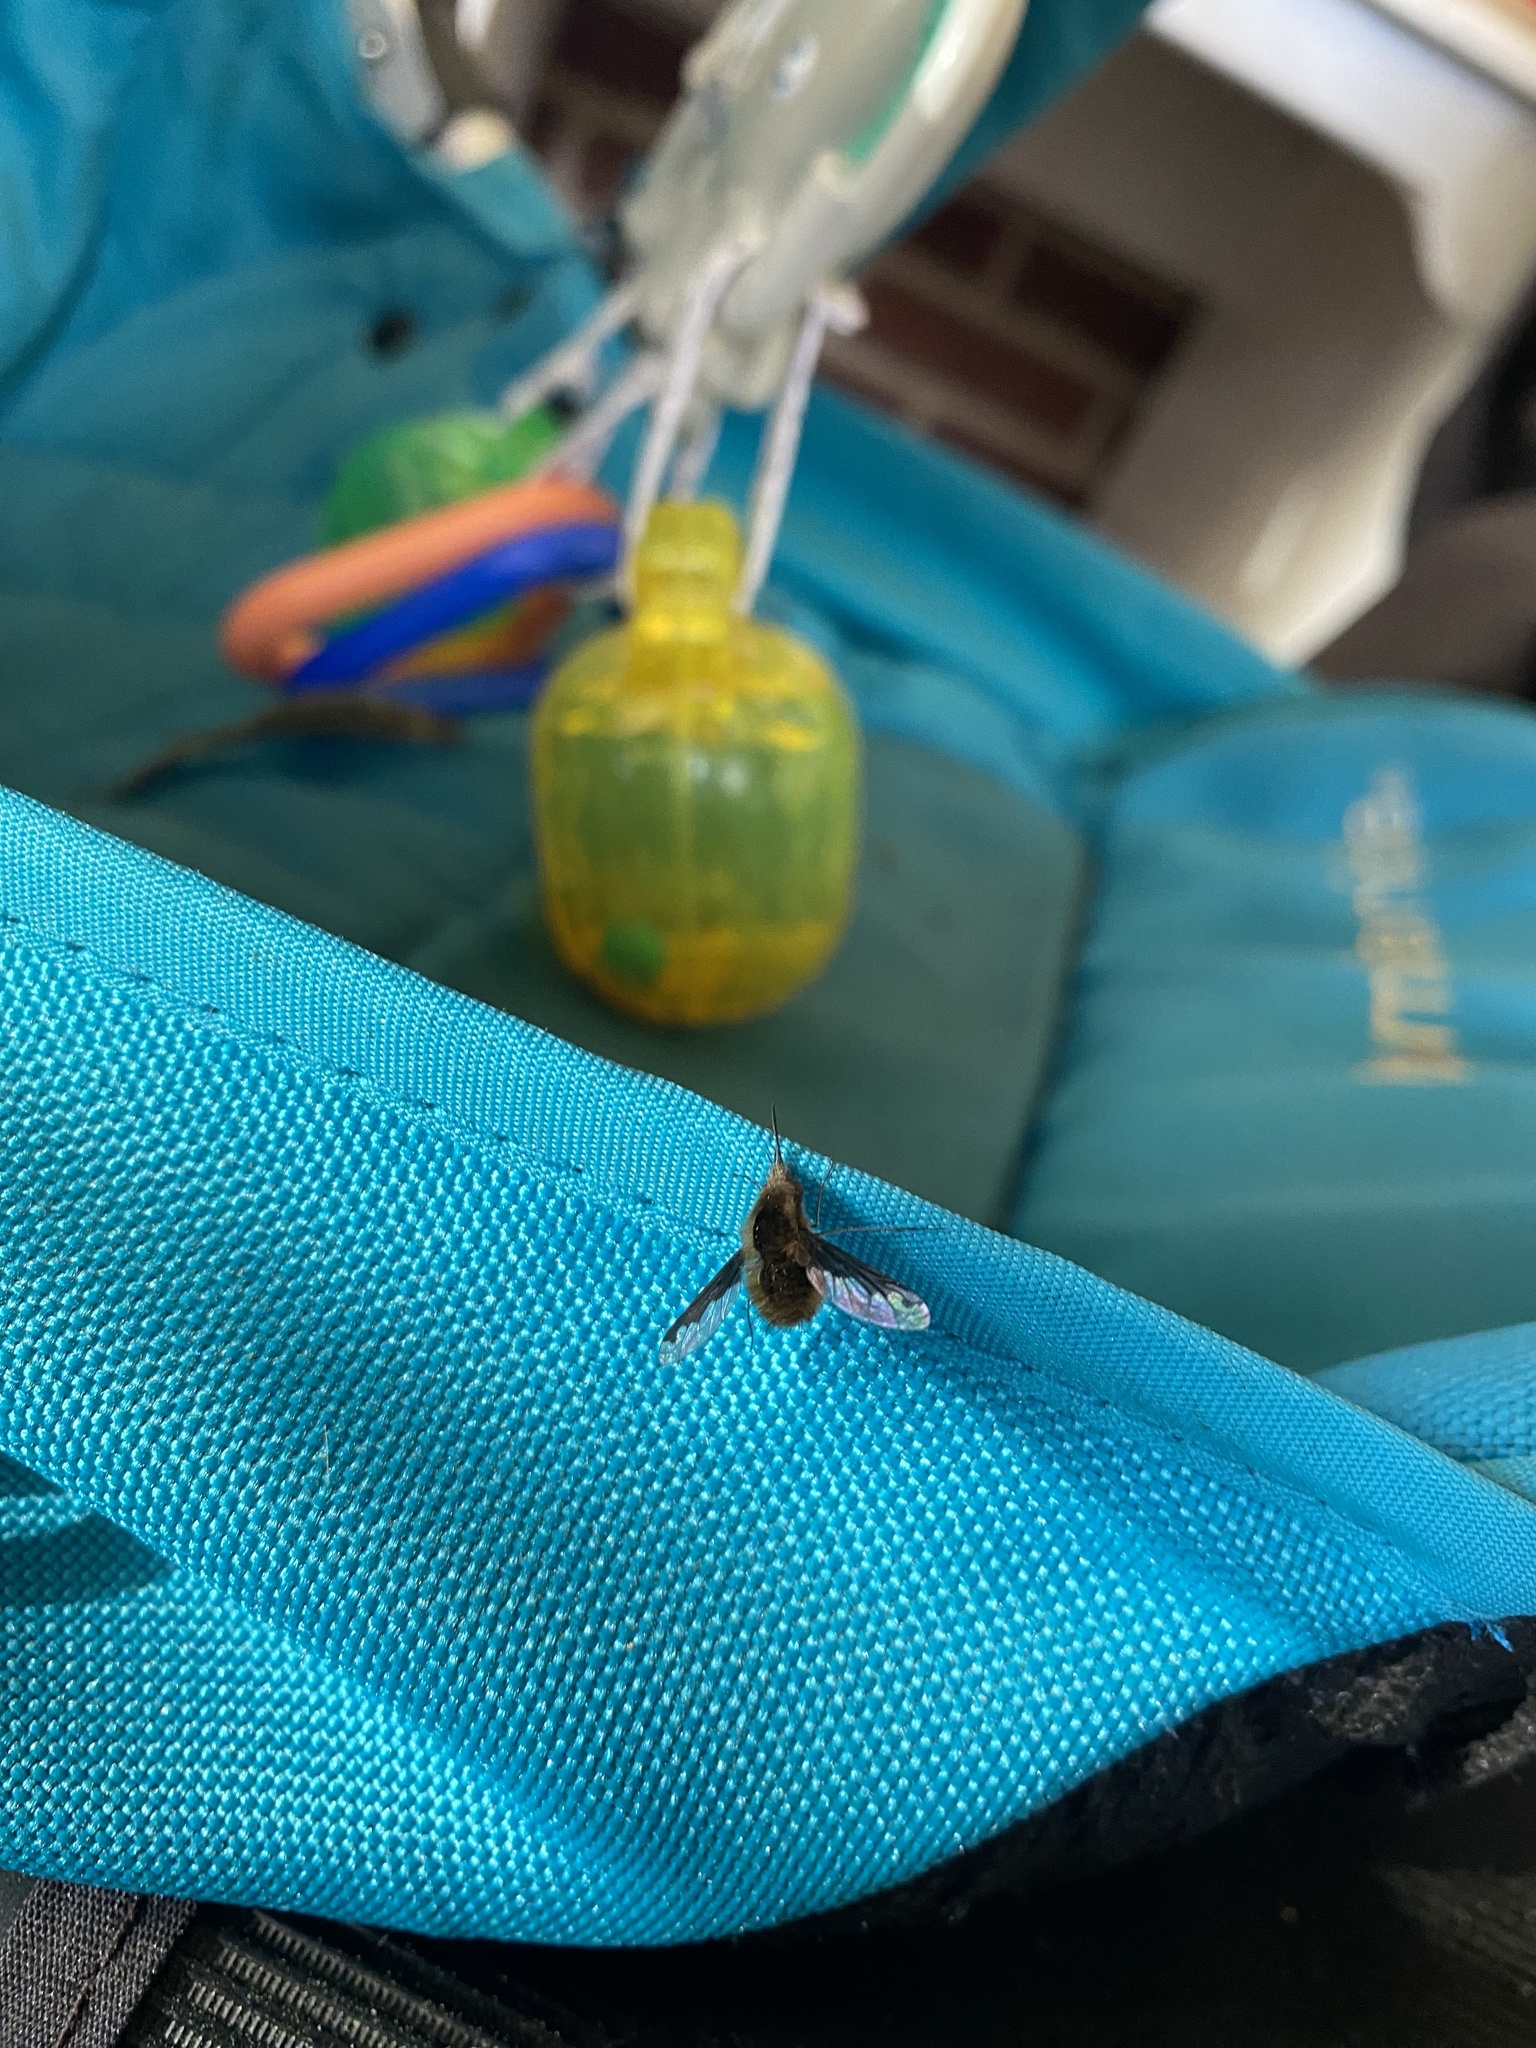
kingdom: Animalia
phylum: Arthropoda
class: Insecta
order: Diptera
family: Bombyliidae
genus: Bombylius
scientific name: Bombylius major
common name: Bee fly
